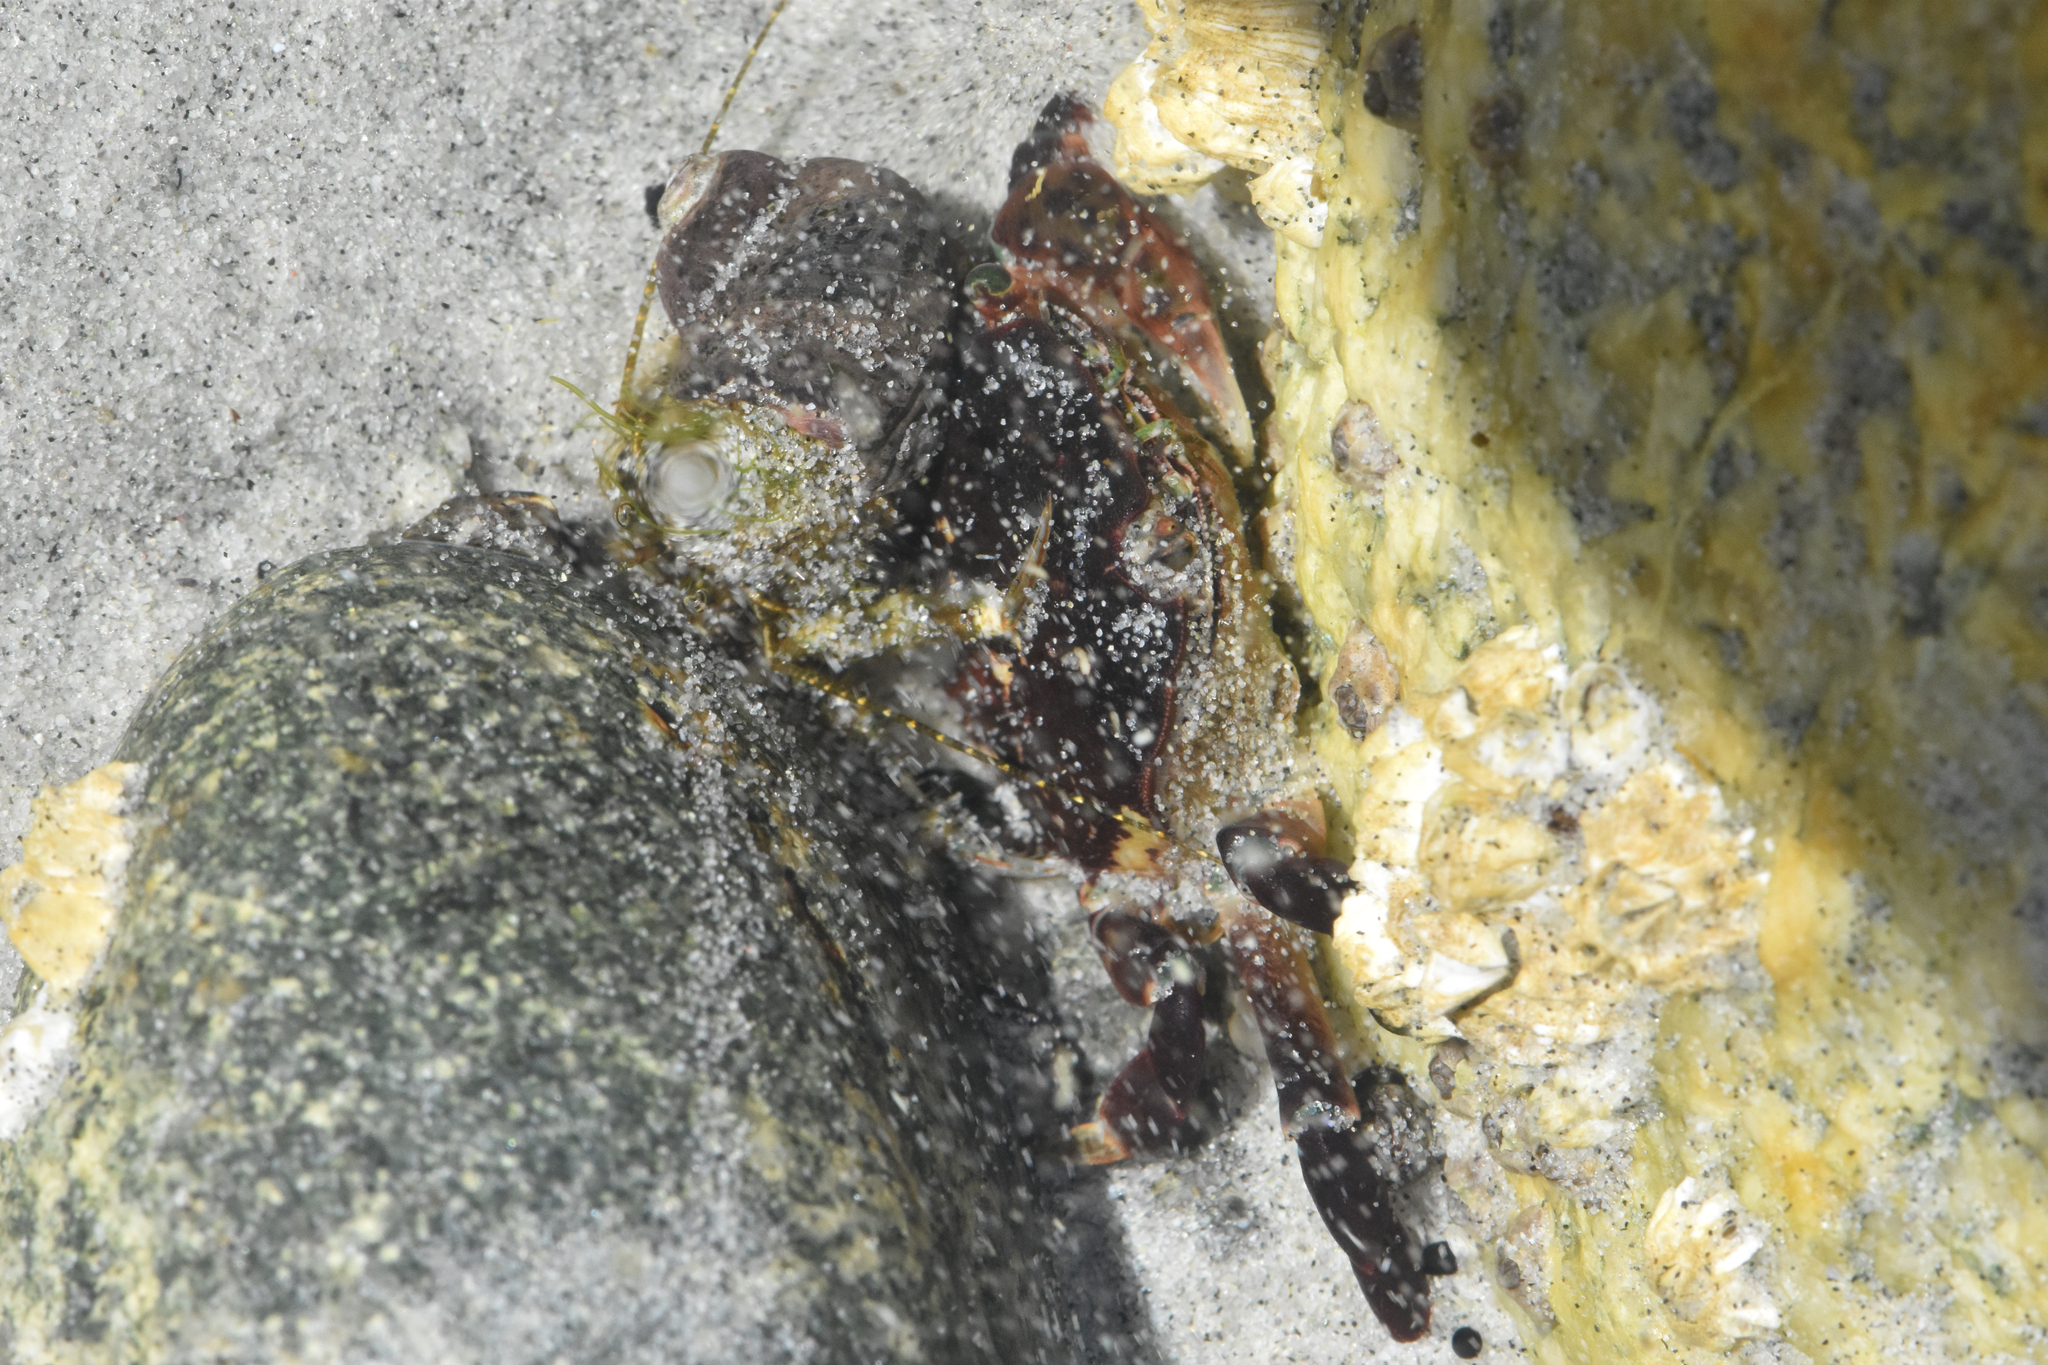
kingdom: Animalia
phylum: Arthropoda
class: Malacostraca
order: Decapoda
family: Varunidae
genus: Hemigrapsus
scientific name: Hemigrapsus nudus
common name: Purple shore crab
